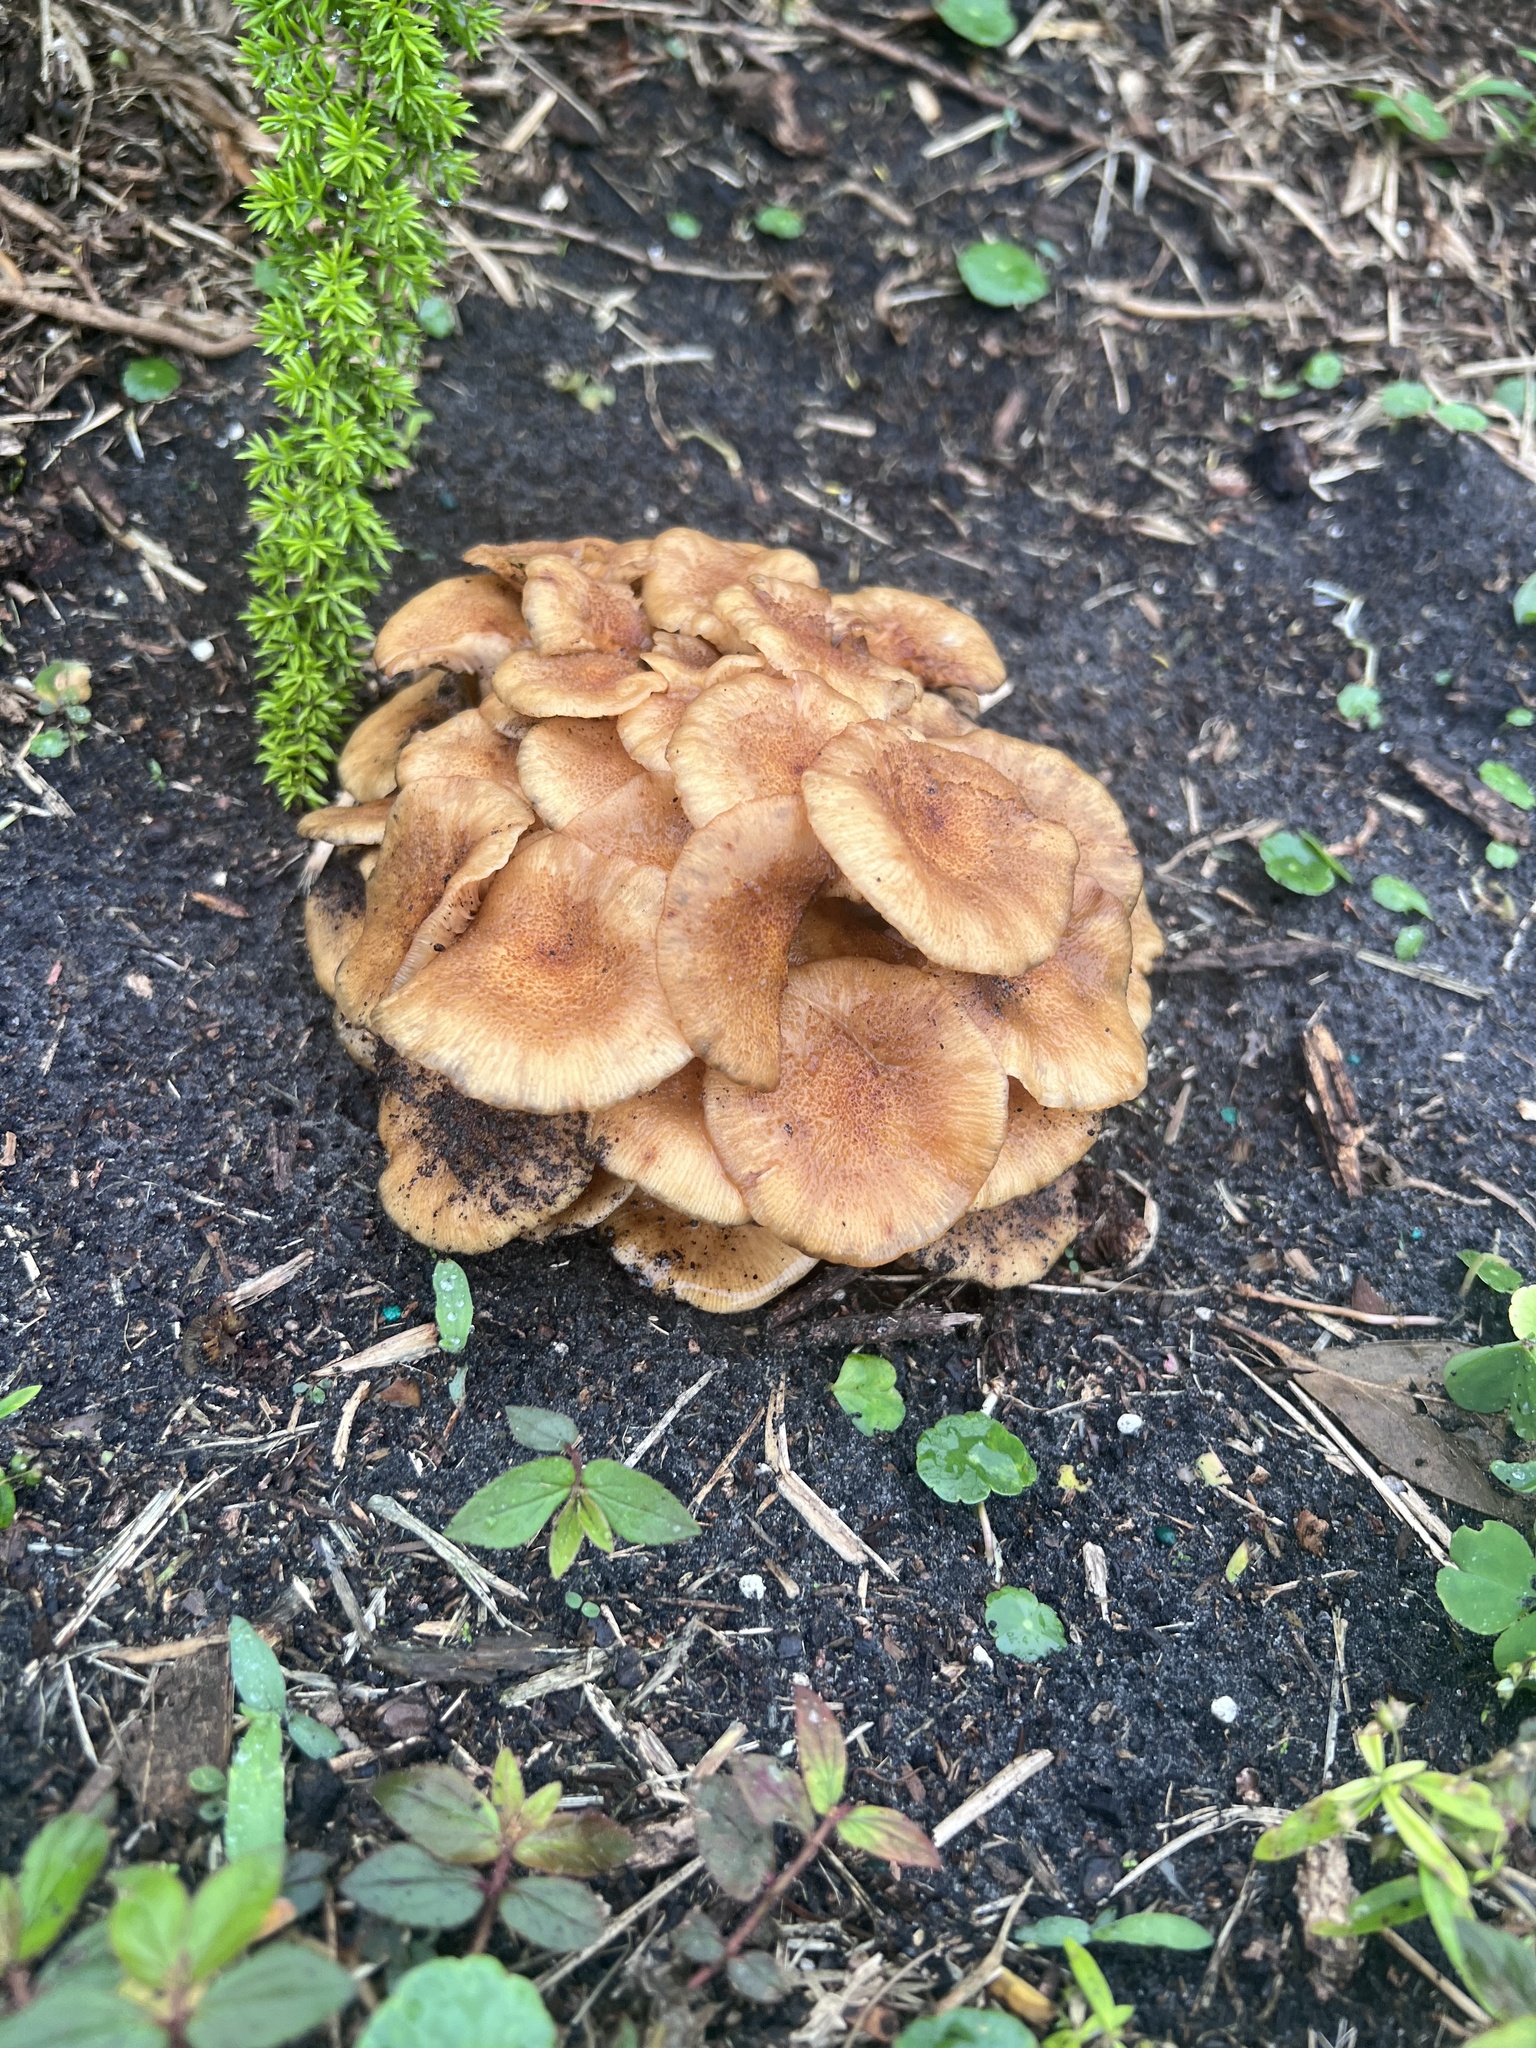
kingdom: Fungi
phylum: Basidiomycota
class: Agaricomycetes
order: Agaricales
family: Physalacriaceae
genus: Desarmillaria
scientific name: Desarmillaria caespitosa
